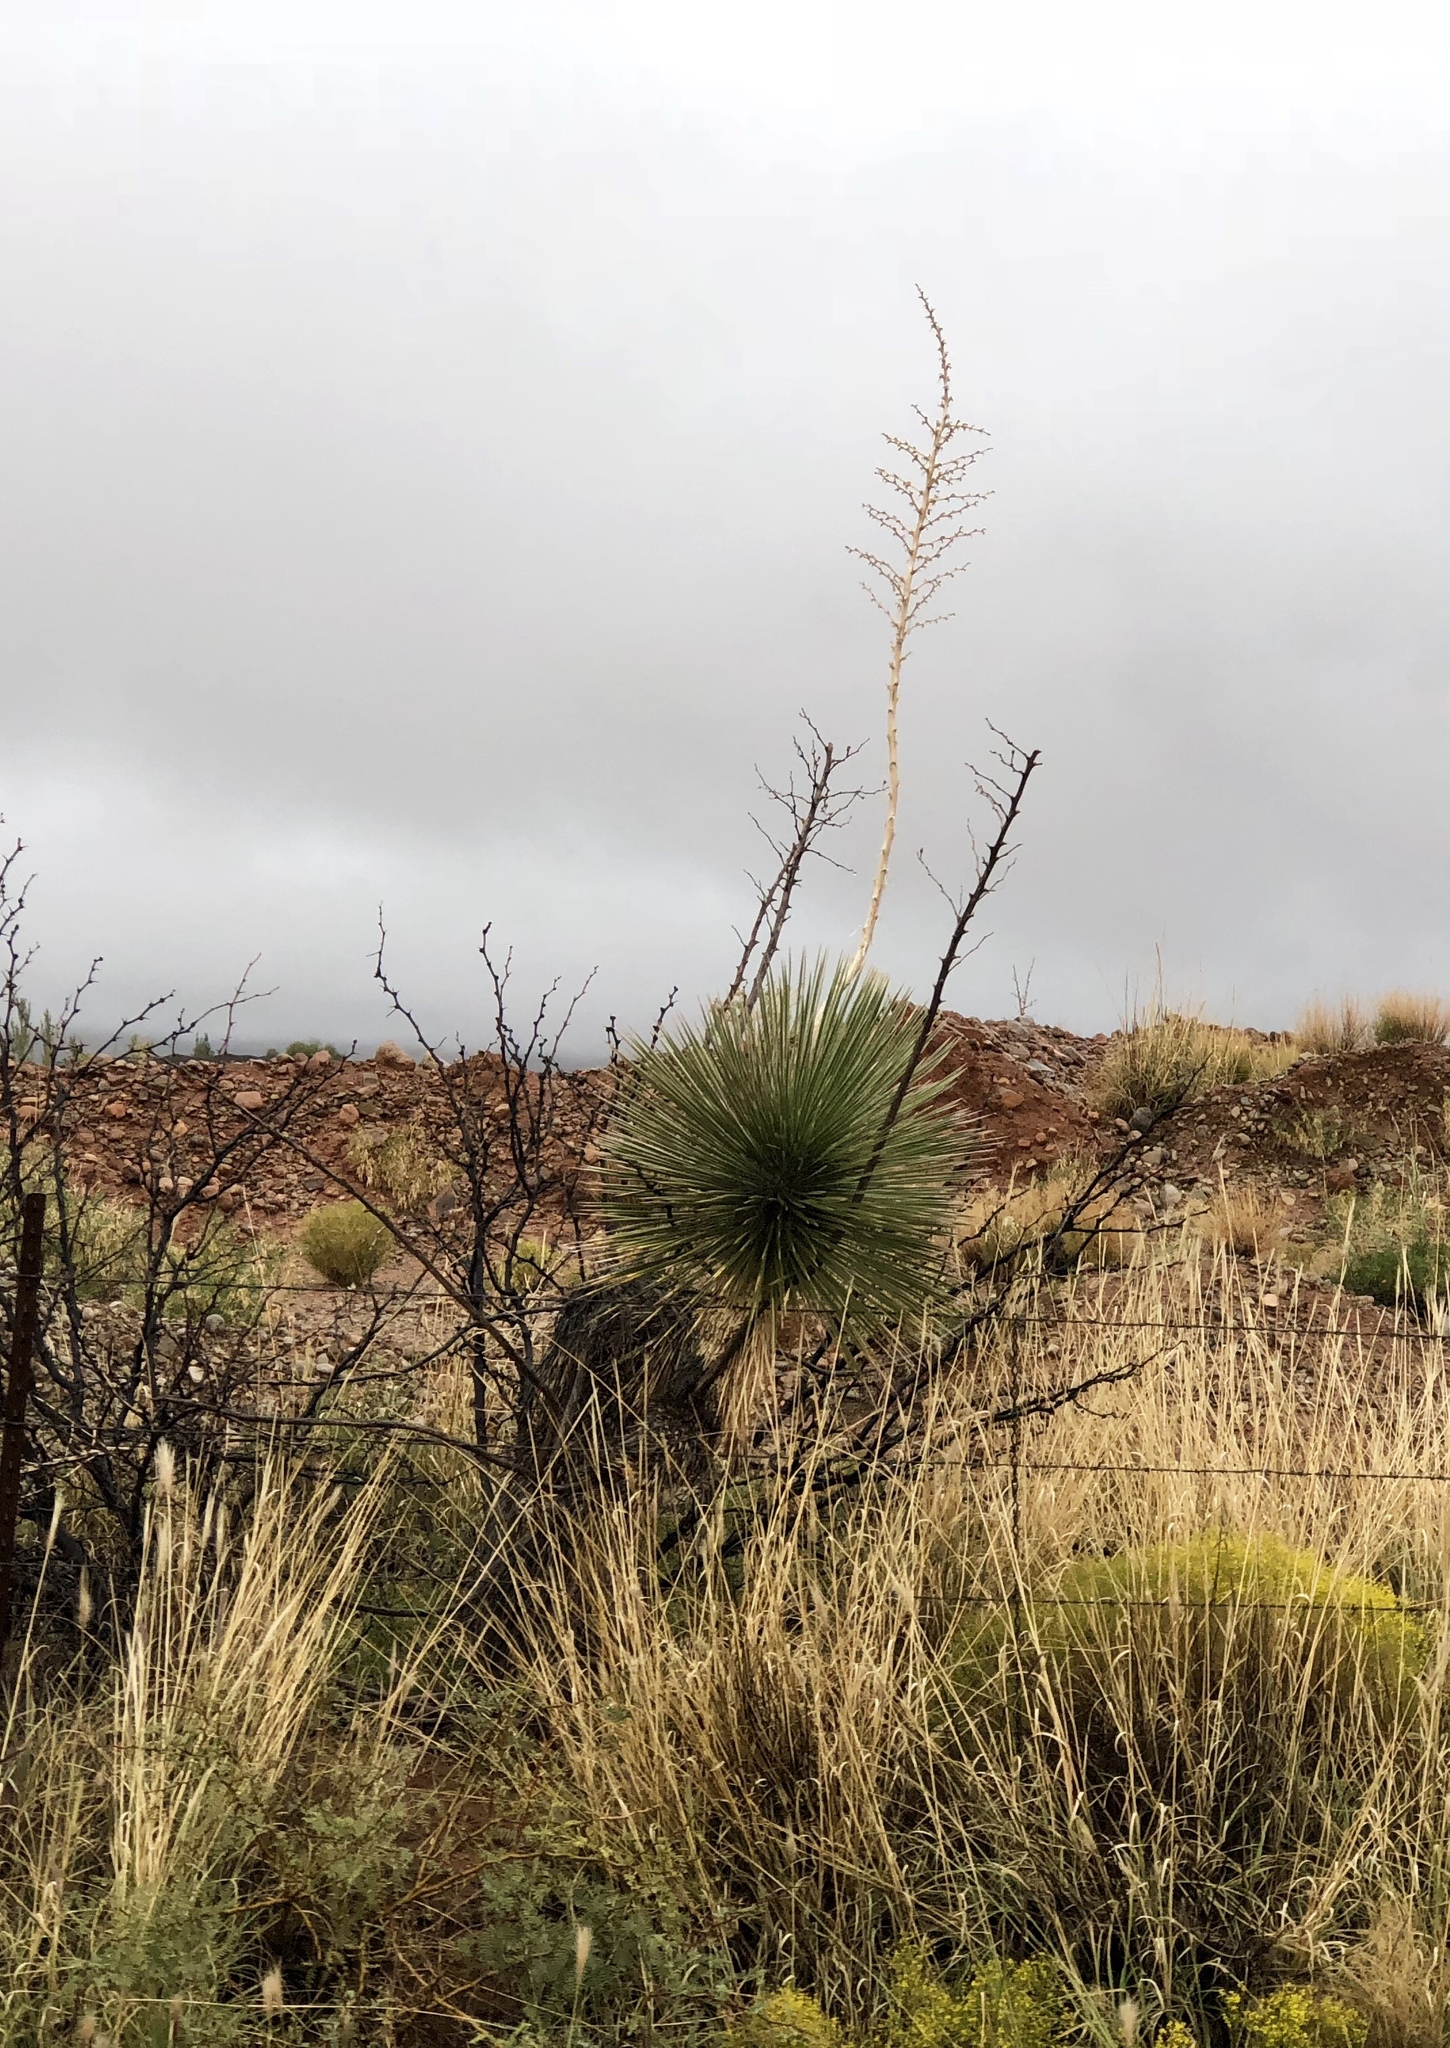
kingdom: Plantae
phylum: Tracheophyta
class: Liliopsida
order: Asparagales
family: Asparagaceae
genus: Yucca
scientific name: Yucca elata
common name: Palmella
